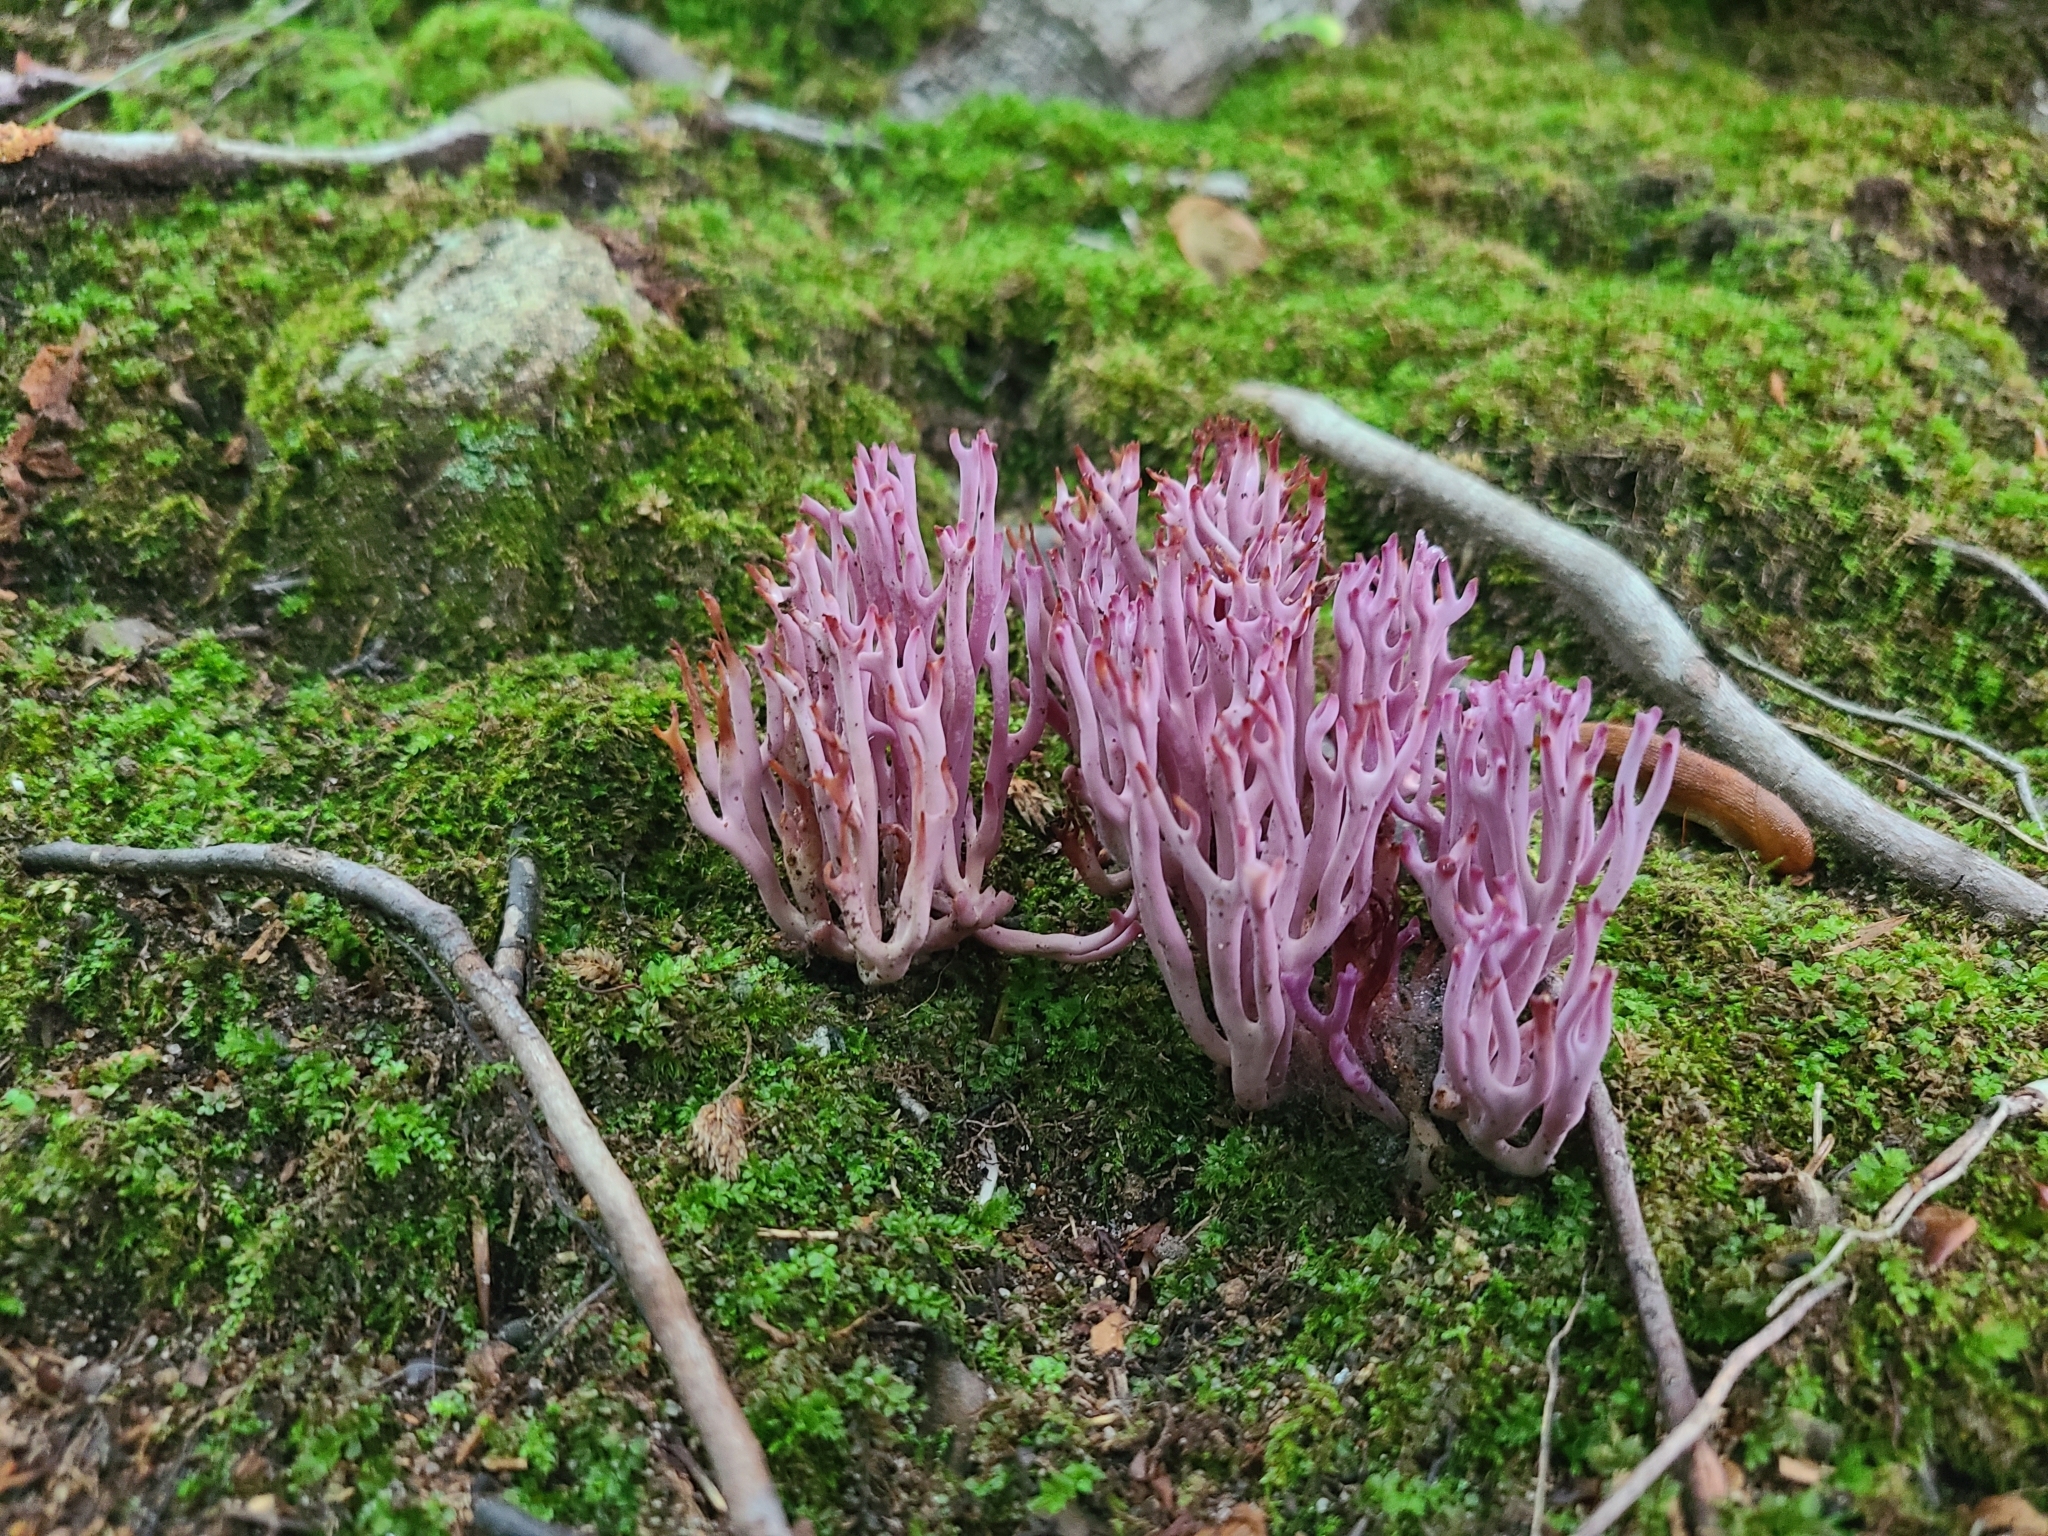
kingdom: Fungi
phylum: Basidiomycota
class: Agaricomycetes
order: Agaricales
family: Clavariaceae
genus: Clavaria
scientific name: Clavaria zollingeri
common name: Violet coral
